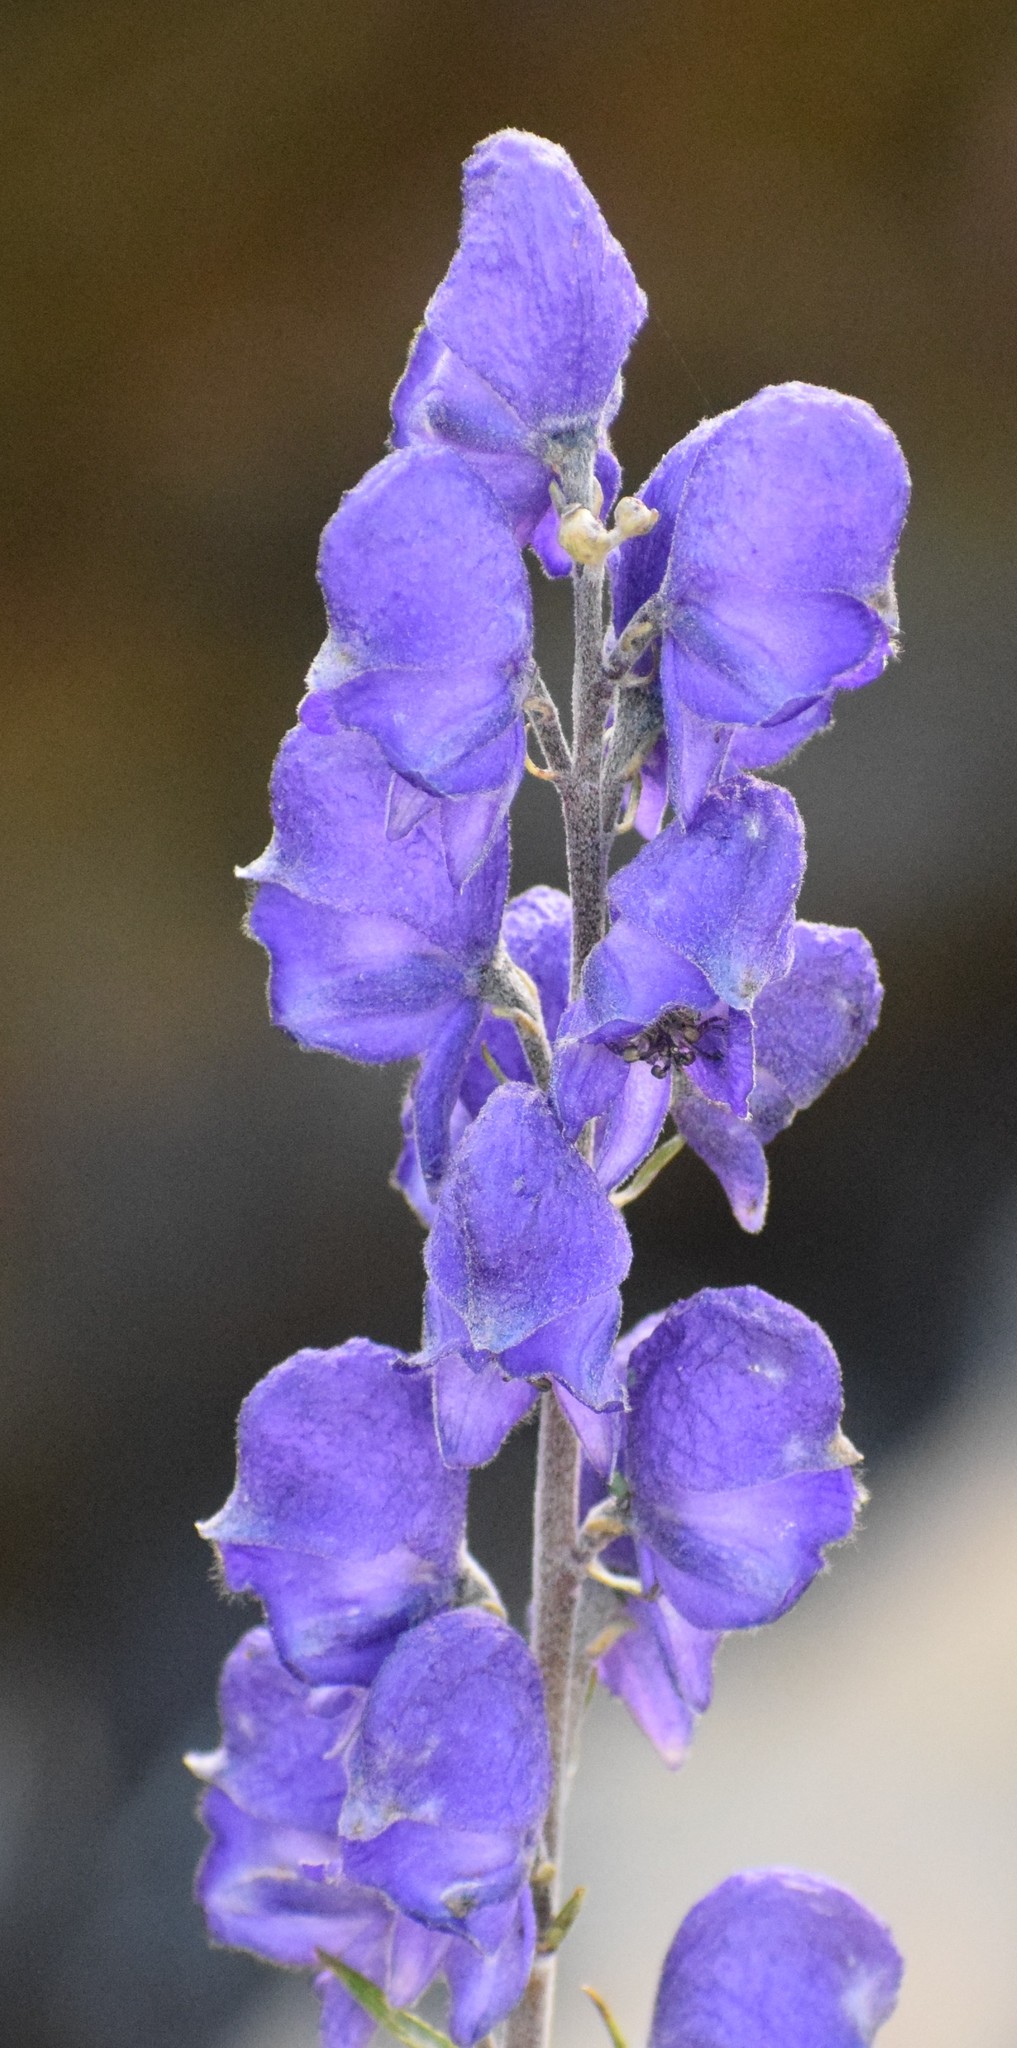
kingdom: Plantae
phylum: Tracheophyta
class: Magnoliopsida
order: Ranunculales
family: Ranunculaceae
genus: Aconitum
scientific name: Aconitum napellus
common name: Garden monkshood
